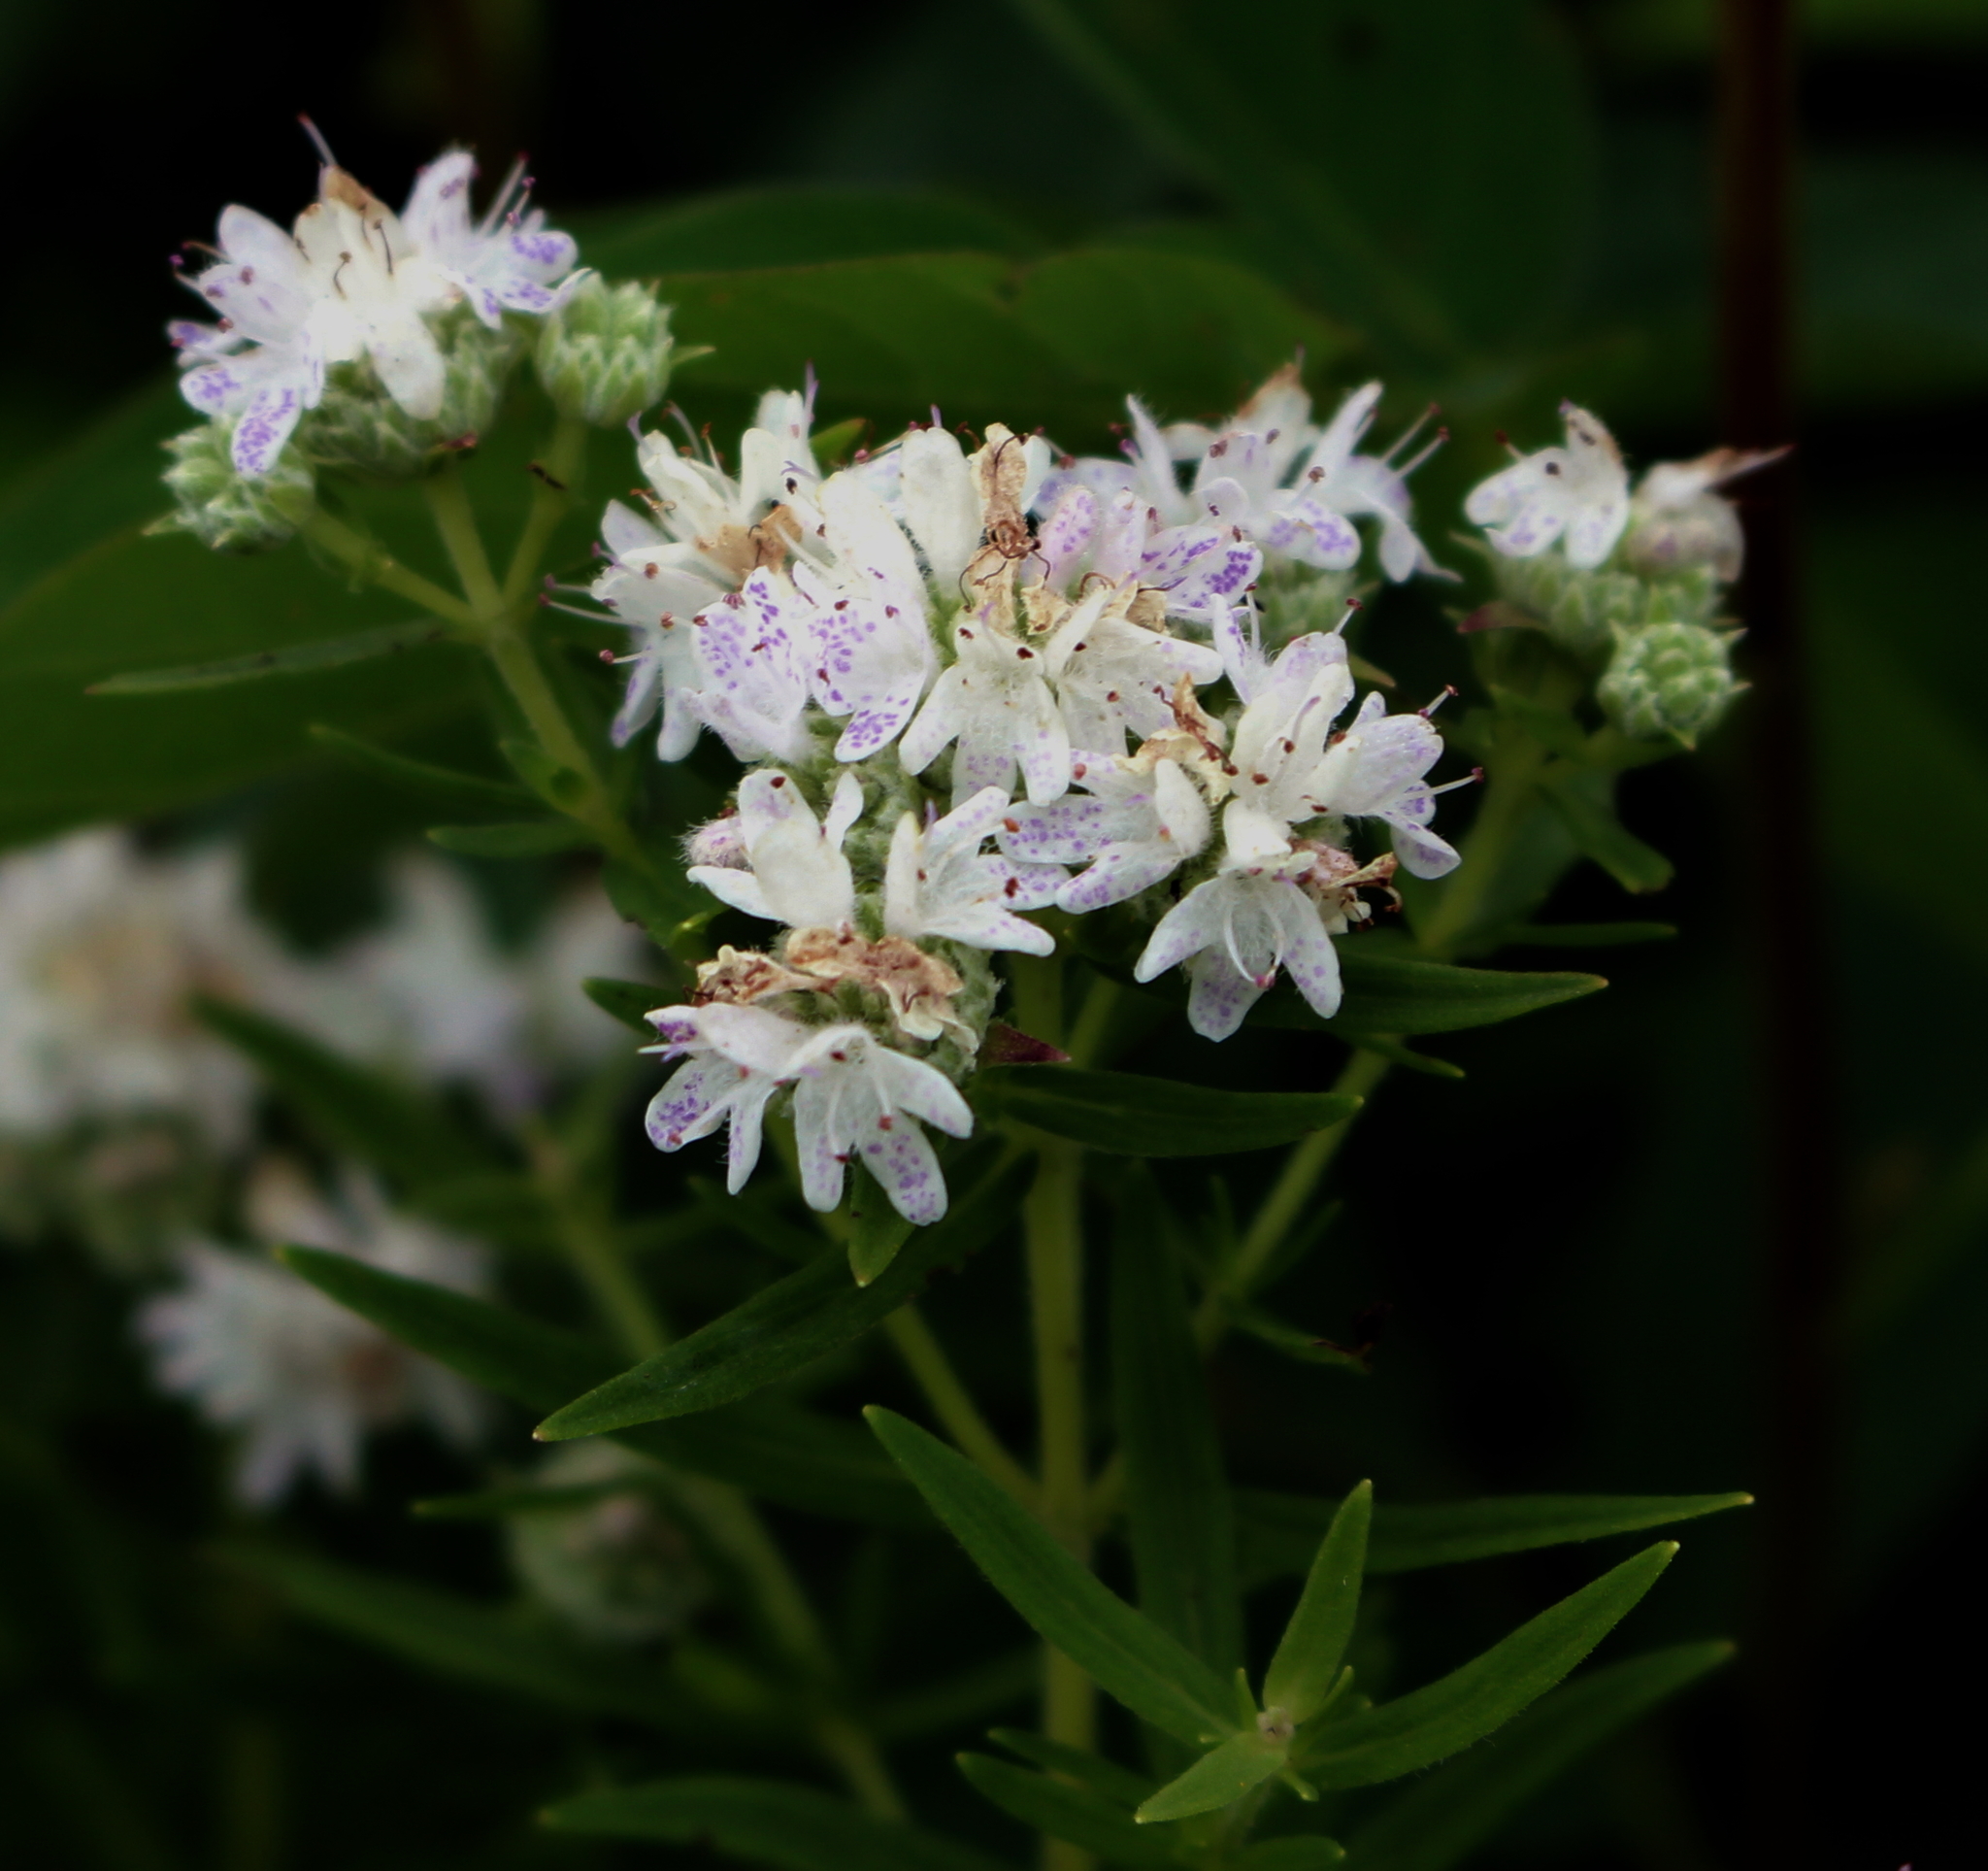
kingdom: Plantae
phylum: Tracheophyta
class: Magnoliopsida
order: Lamiales
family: Lamiaceae
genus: Pycnanthemum
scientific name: Pycnanthemum virginianum
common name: Virginia mountain-mint
